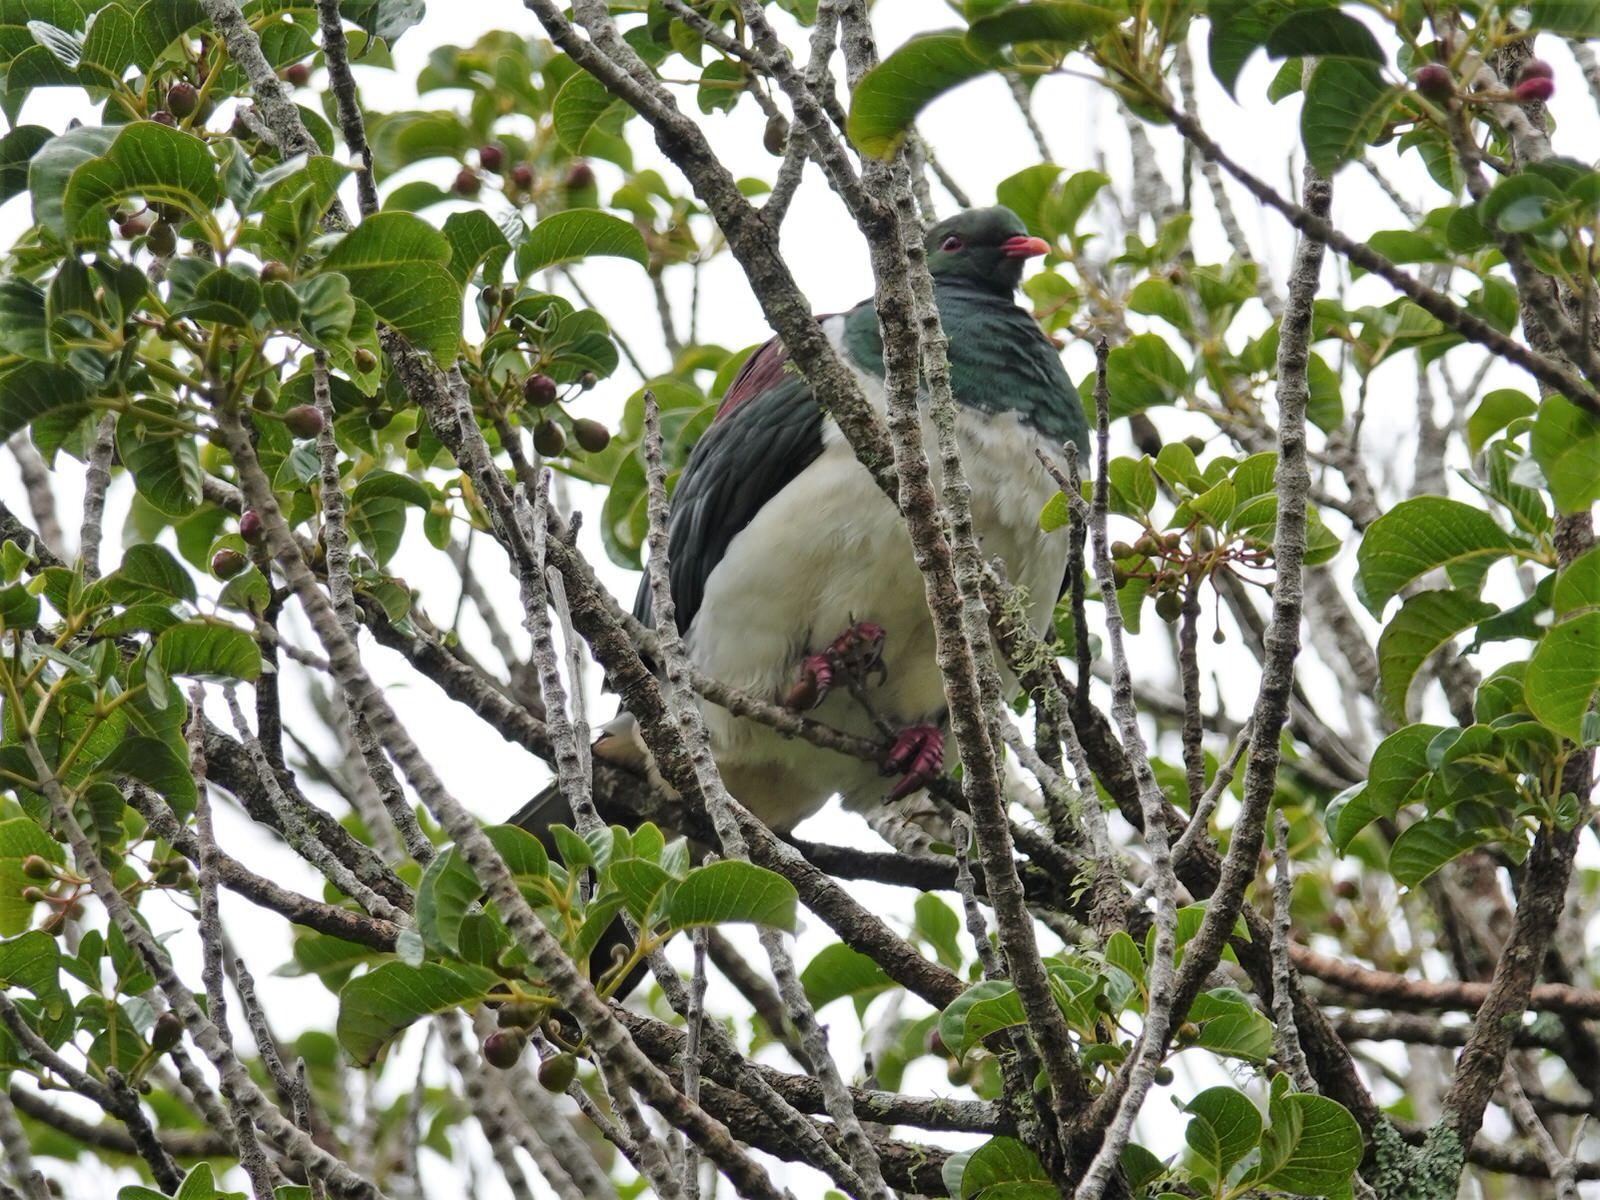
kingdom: Animalia
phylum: Chordata
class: Aves
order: Columbiformes
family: Columbidae
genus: Hemiphaga
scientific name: Hemiphaga novaeseelandiae
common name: New zealand pigeon
